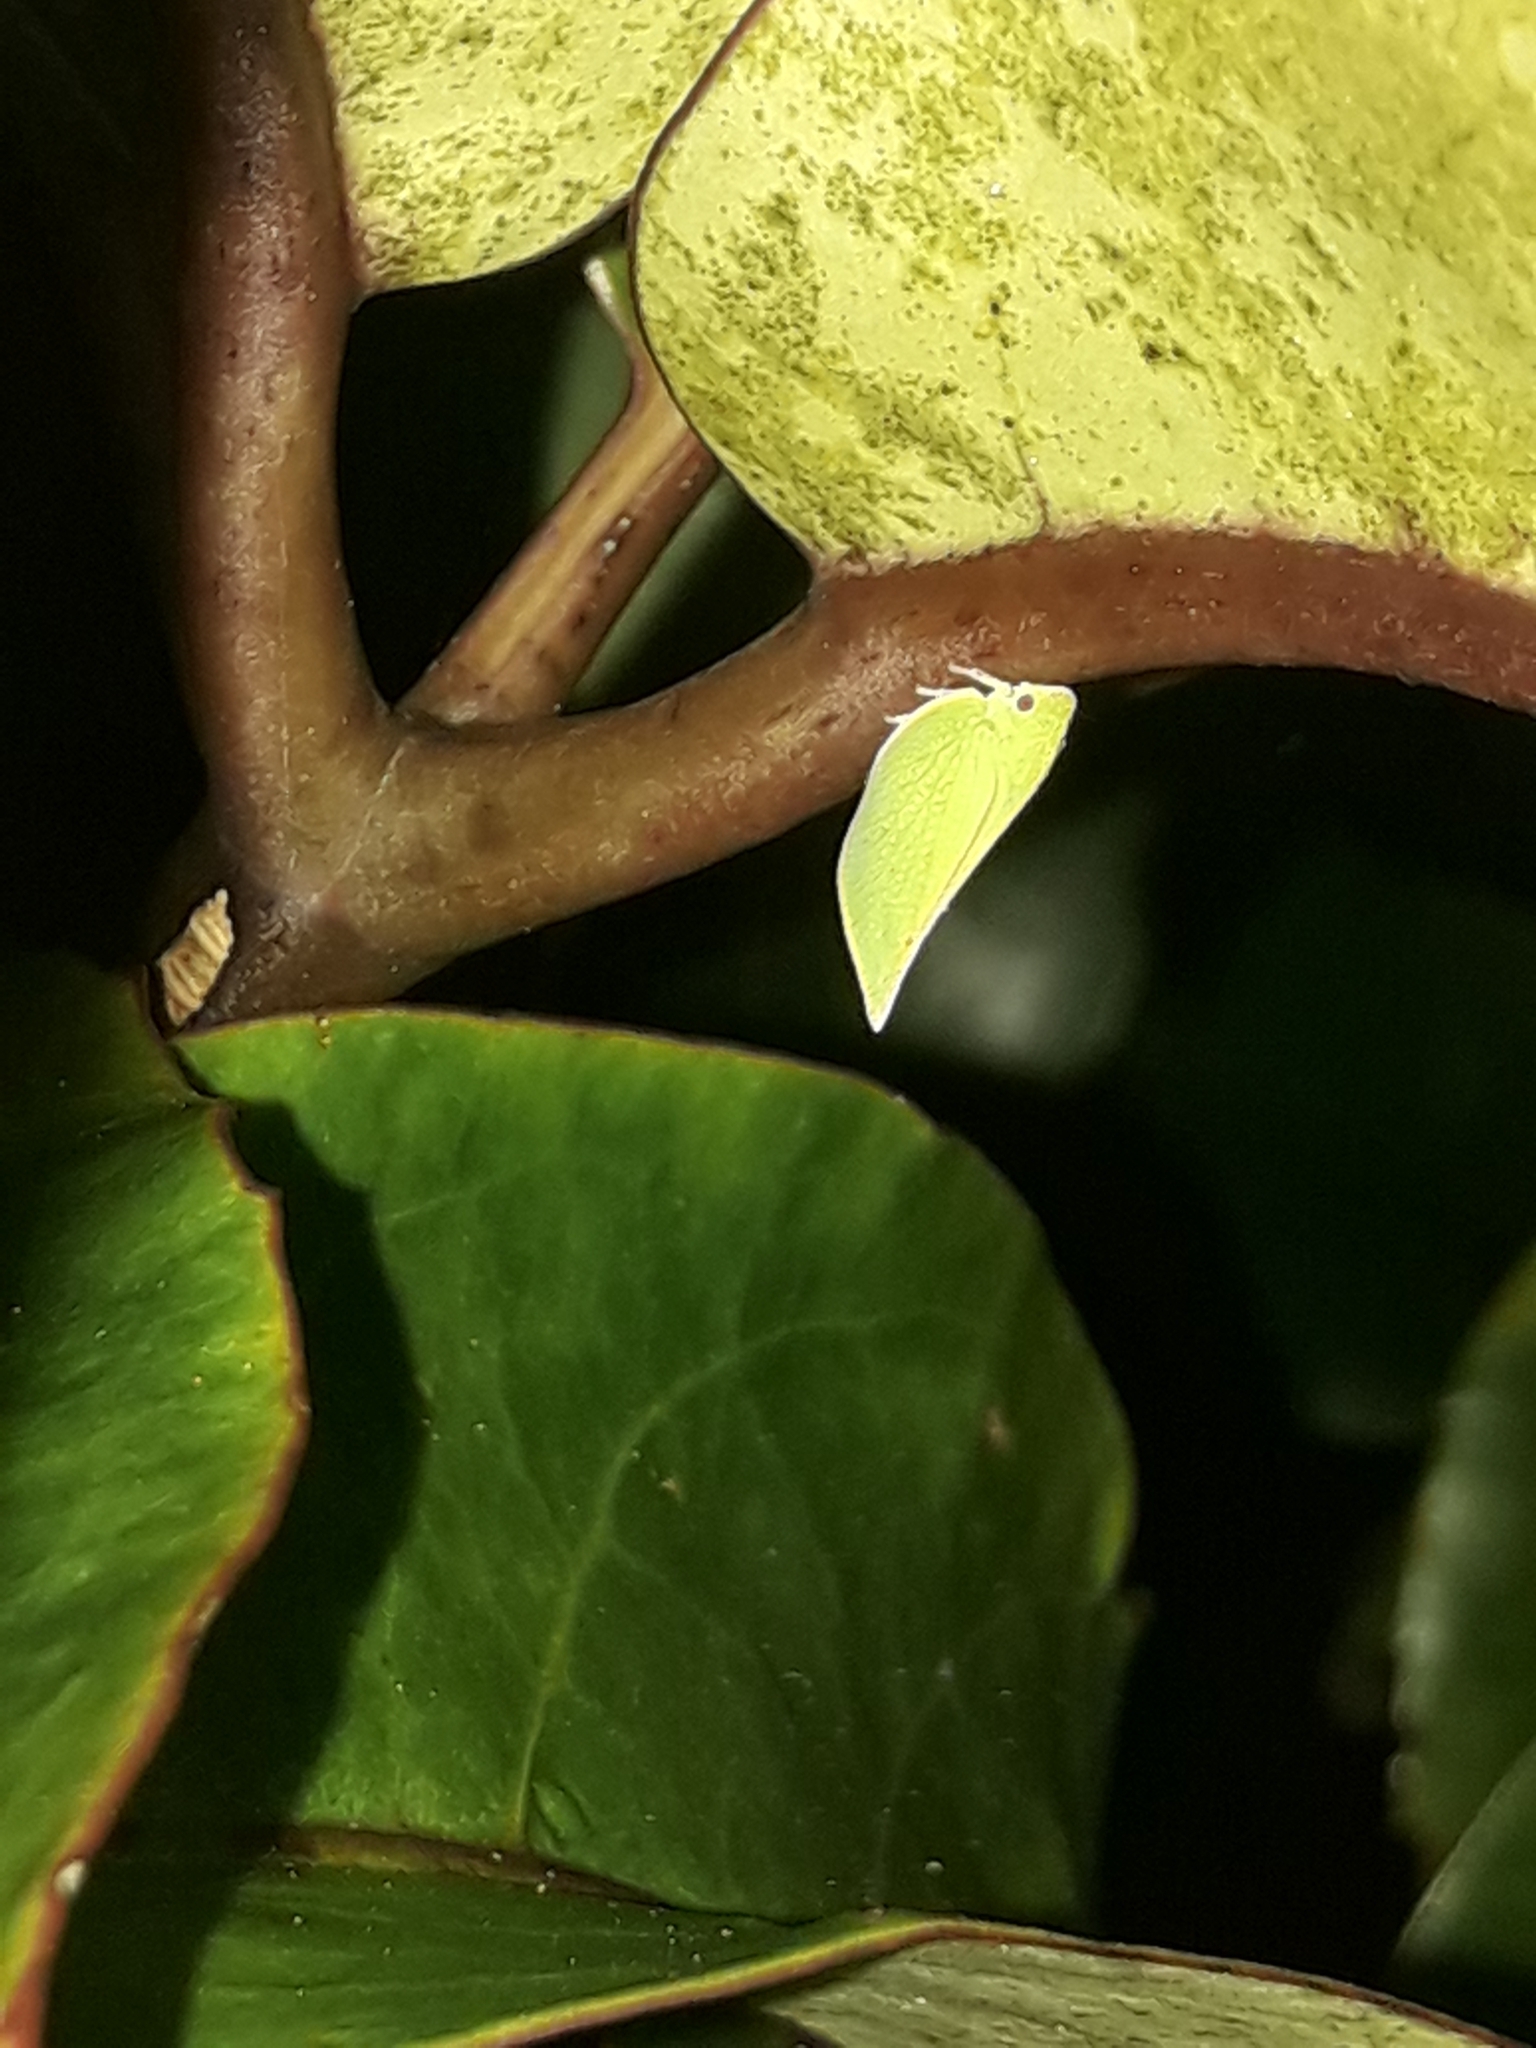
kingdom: Animalia
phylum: Arthropoda
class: Insecta
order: Hemiptera
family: Flatidae
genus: Siphanta
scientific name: Siphanta acuta
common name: Torpedo bug
